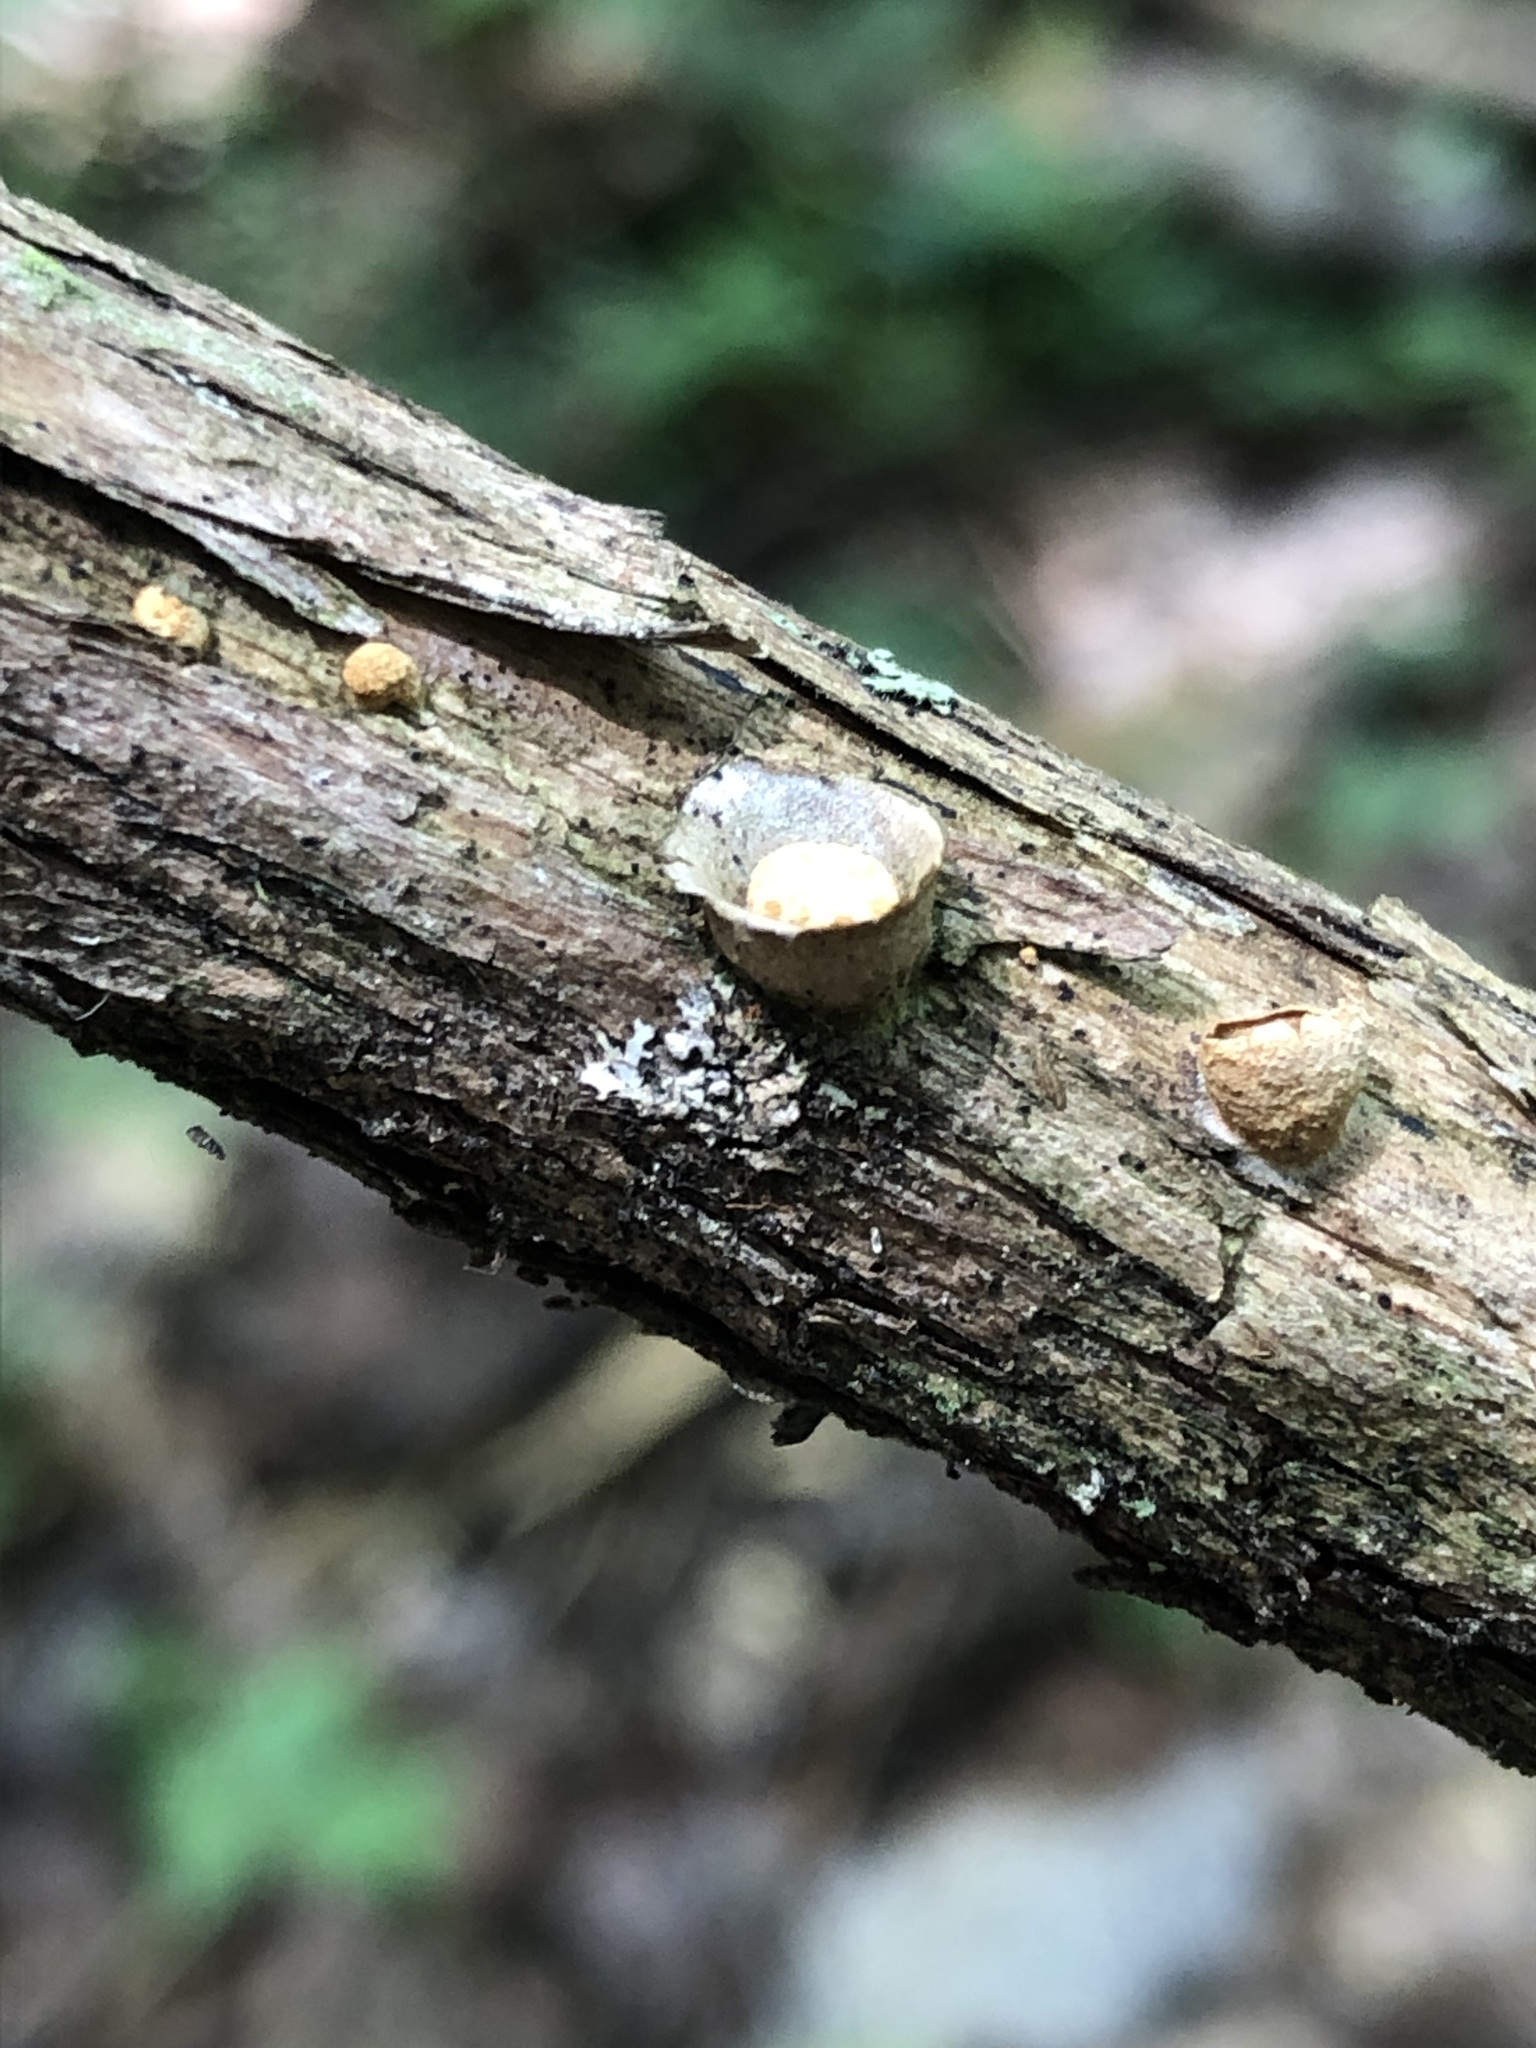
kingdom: Fungi
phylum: Basidiomycota
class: Agaricomycetes
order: Agaricales
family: Nidulariaceae
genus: Crucibulum
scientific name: Crucibulum laeve
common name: Common bird's nest
